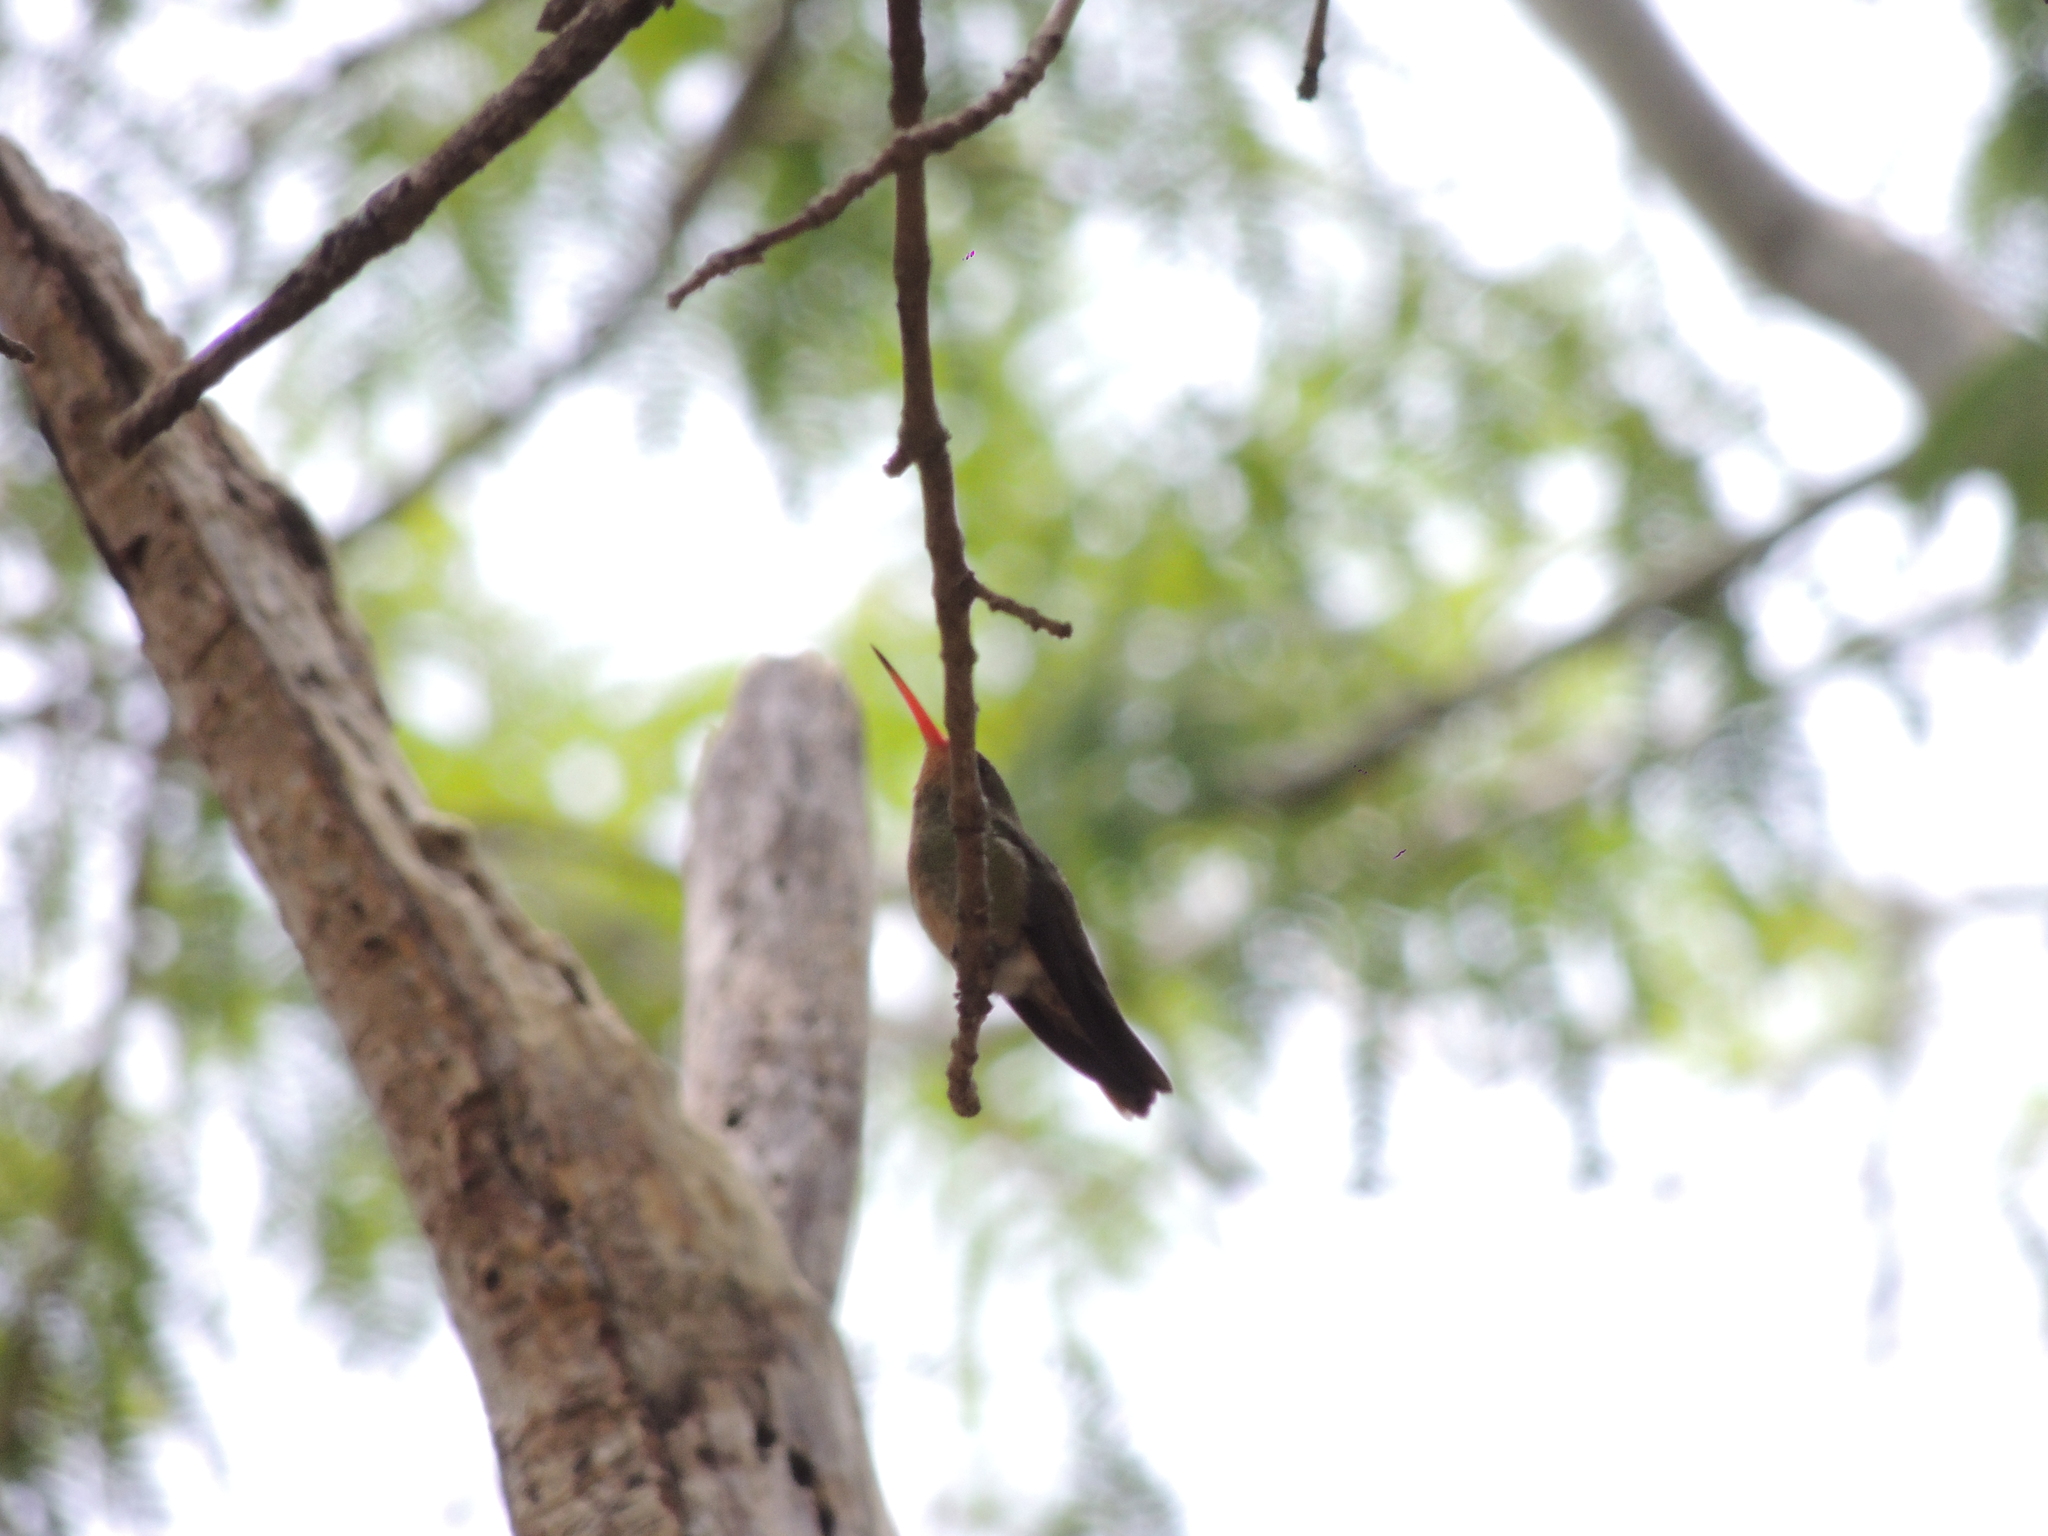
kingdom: Animalia
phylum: Chordata
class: Aves
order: Apodiformes
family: Trochilidae
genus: Hylocharis
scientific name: Hylocharis chrysura
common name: Gilded sapphire
